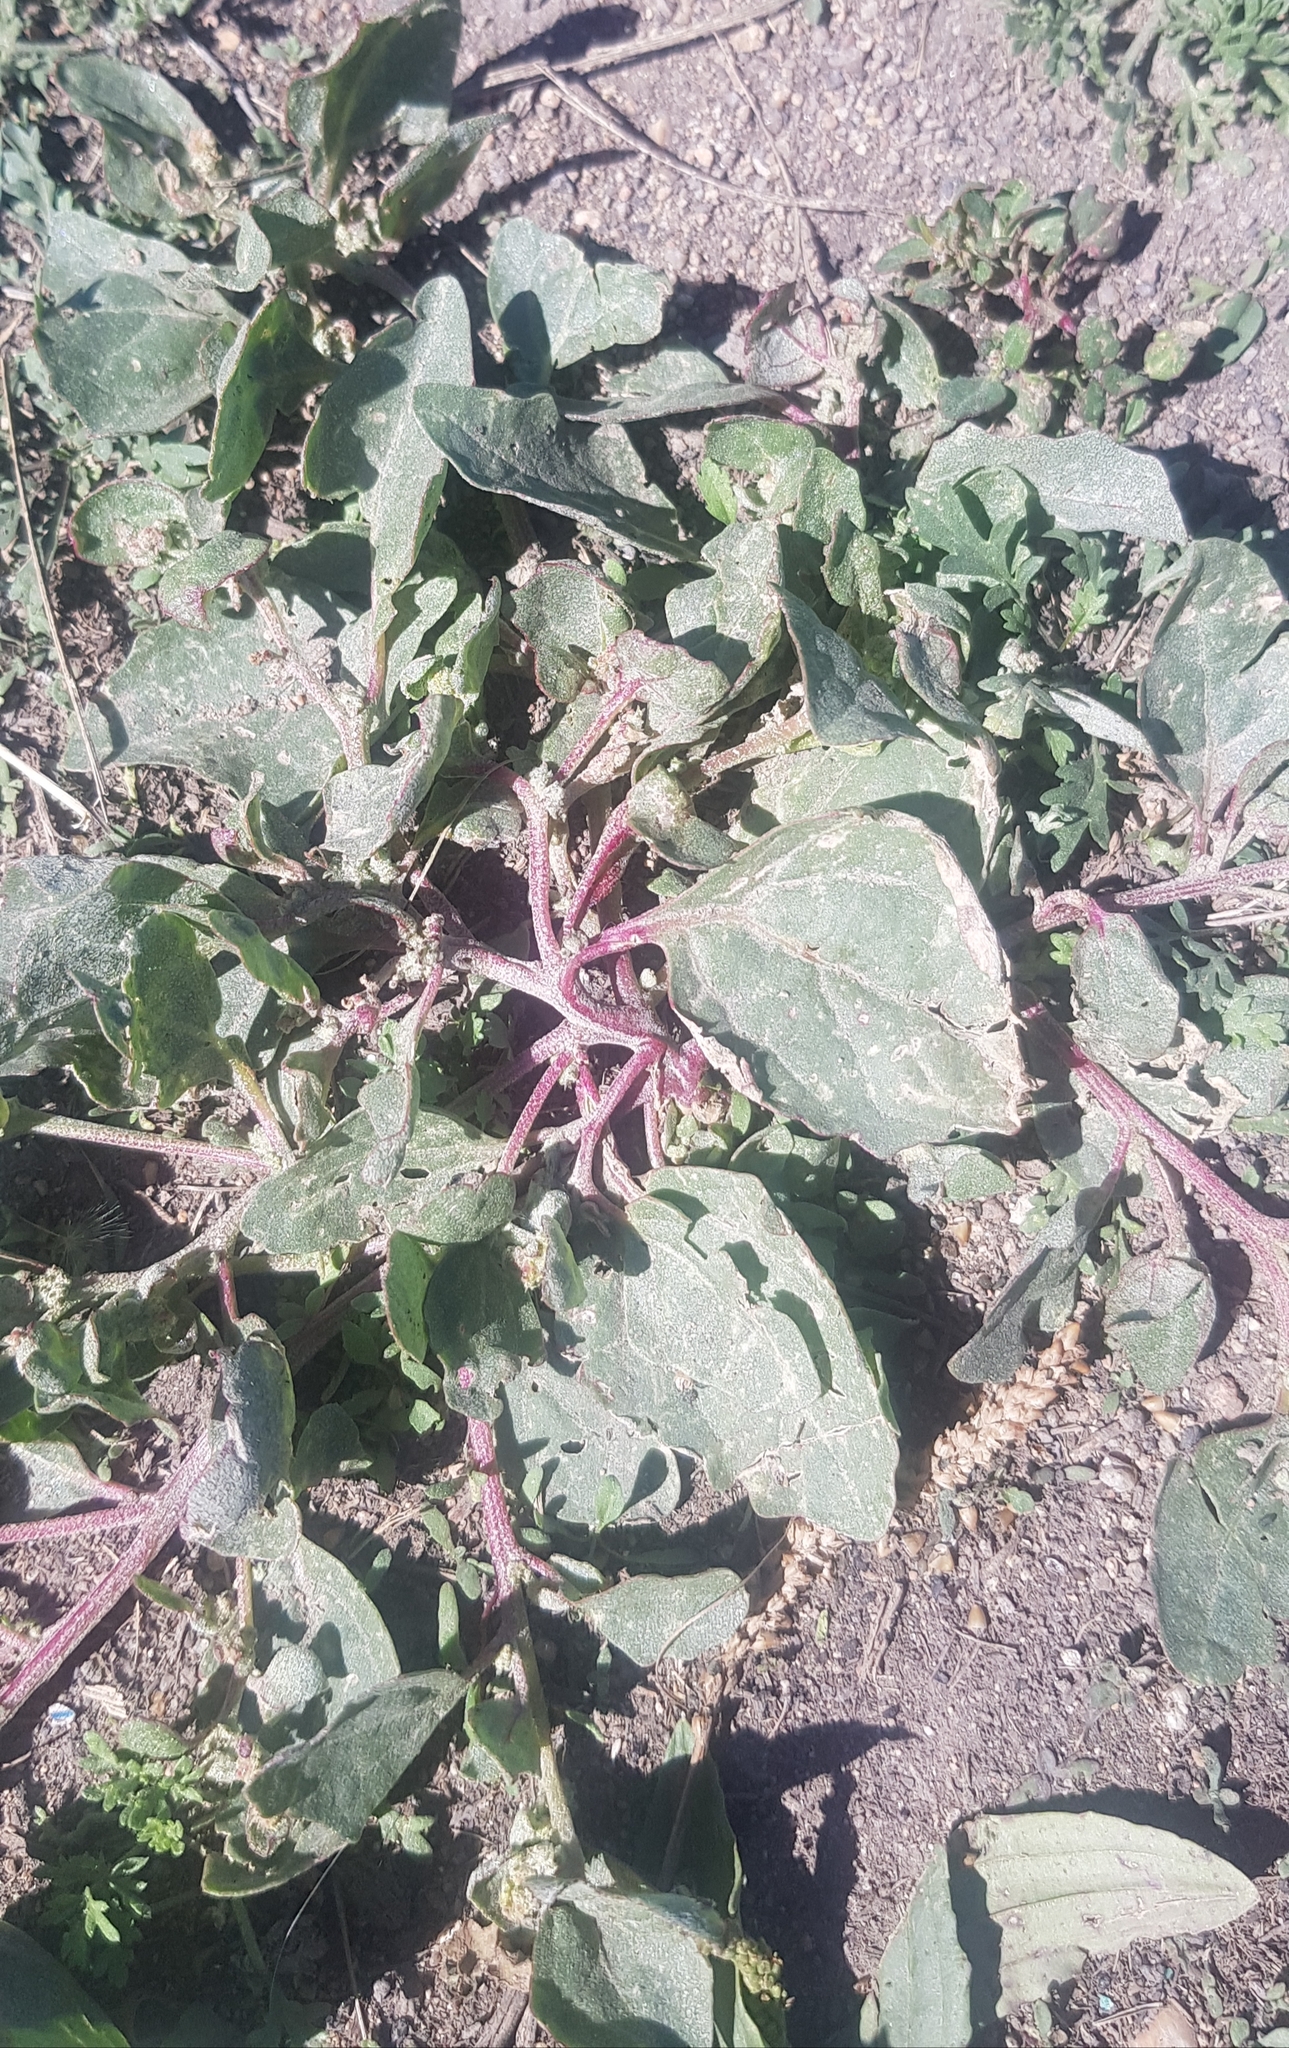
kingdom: Plantae
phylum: Tracheophyta
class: Magnoliopsida
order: Caryophyllales
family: Polygonaceae
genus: Polygonum
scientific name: Polygonum arenastrum
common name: Equal-leaved knotgrass
